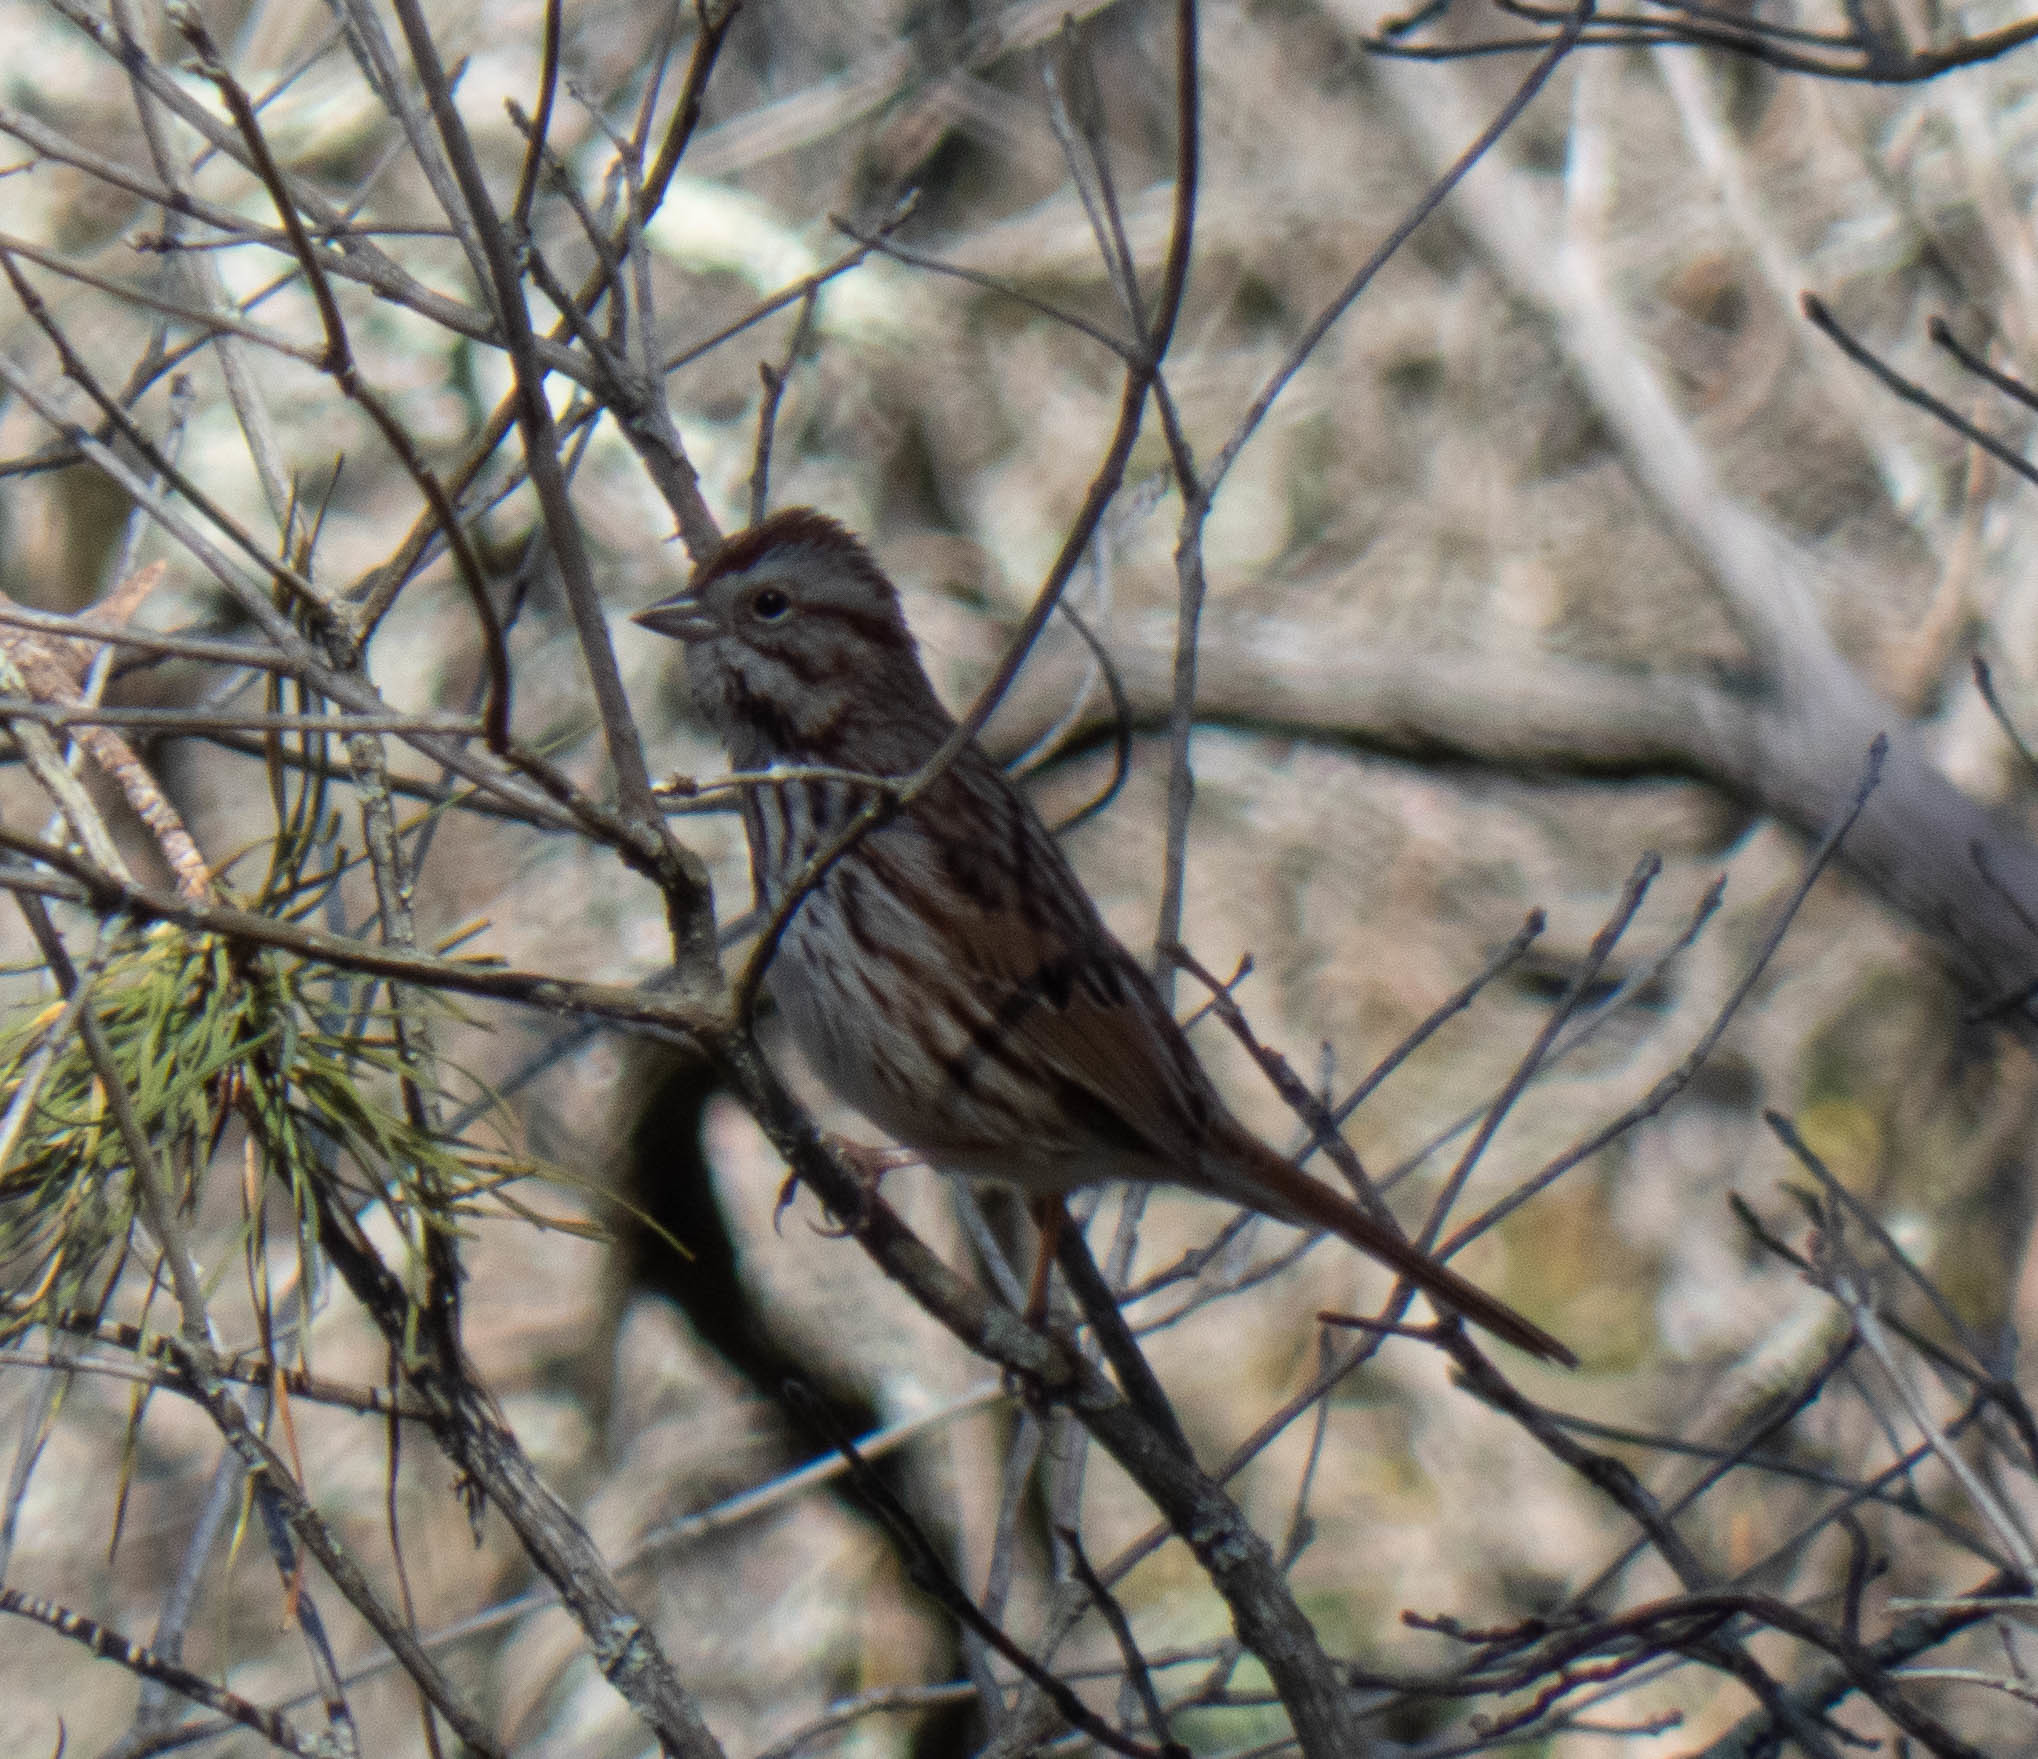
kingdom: Animalia
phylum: Chordata
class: Aves
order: Passeriformes
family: Passerellidae
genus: Melospiza
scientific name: Melospiza melodia
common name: Song sparrow
